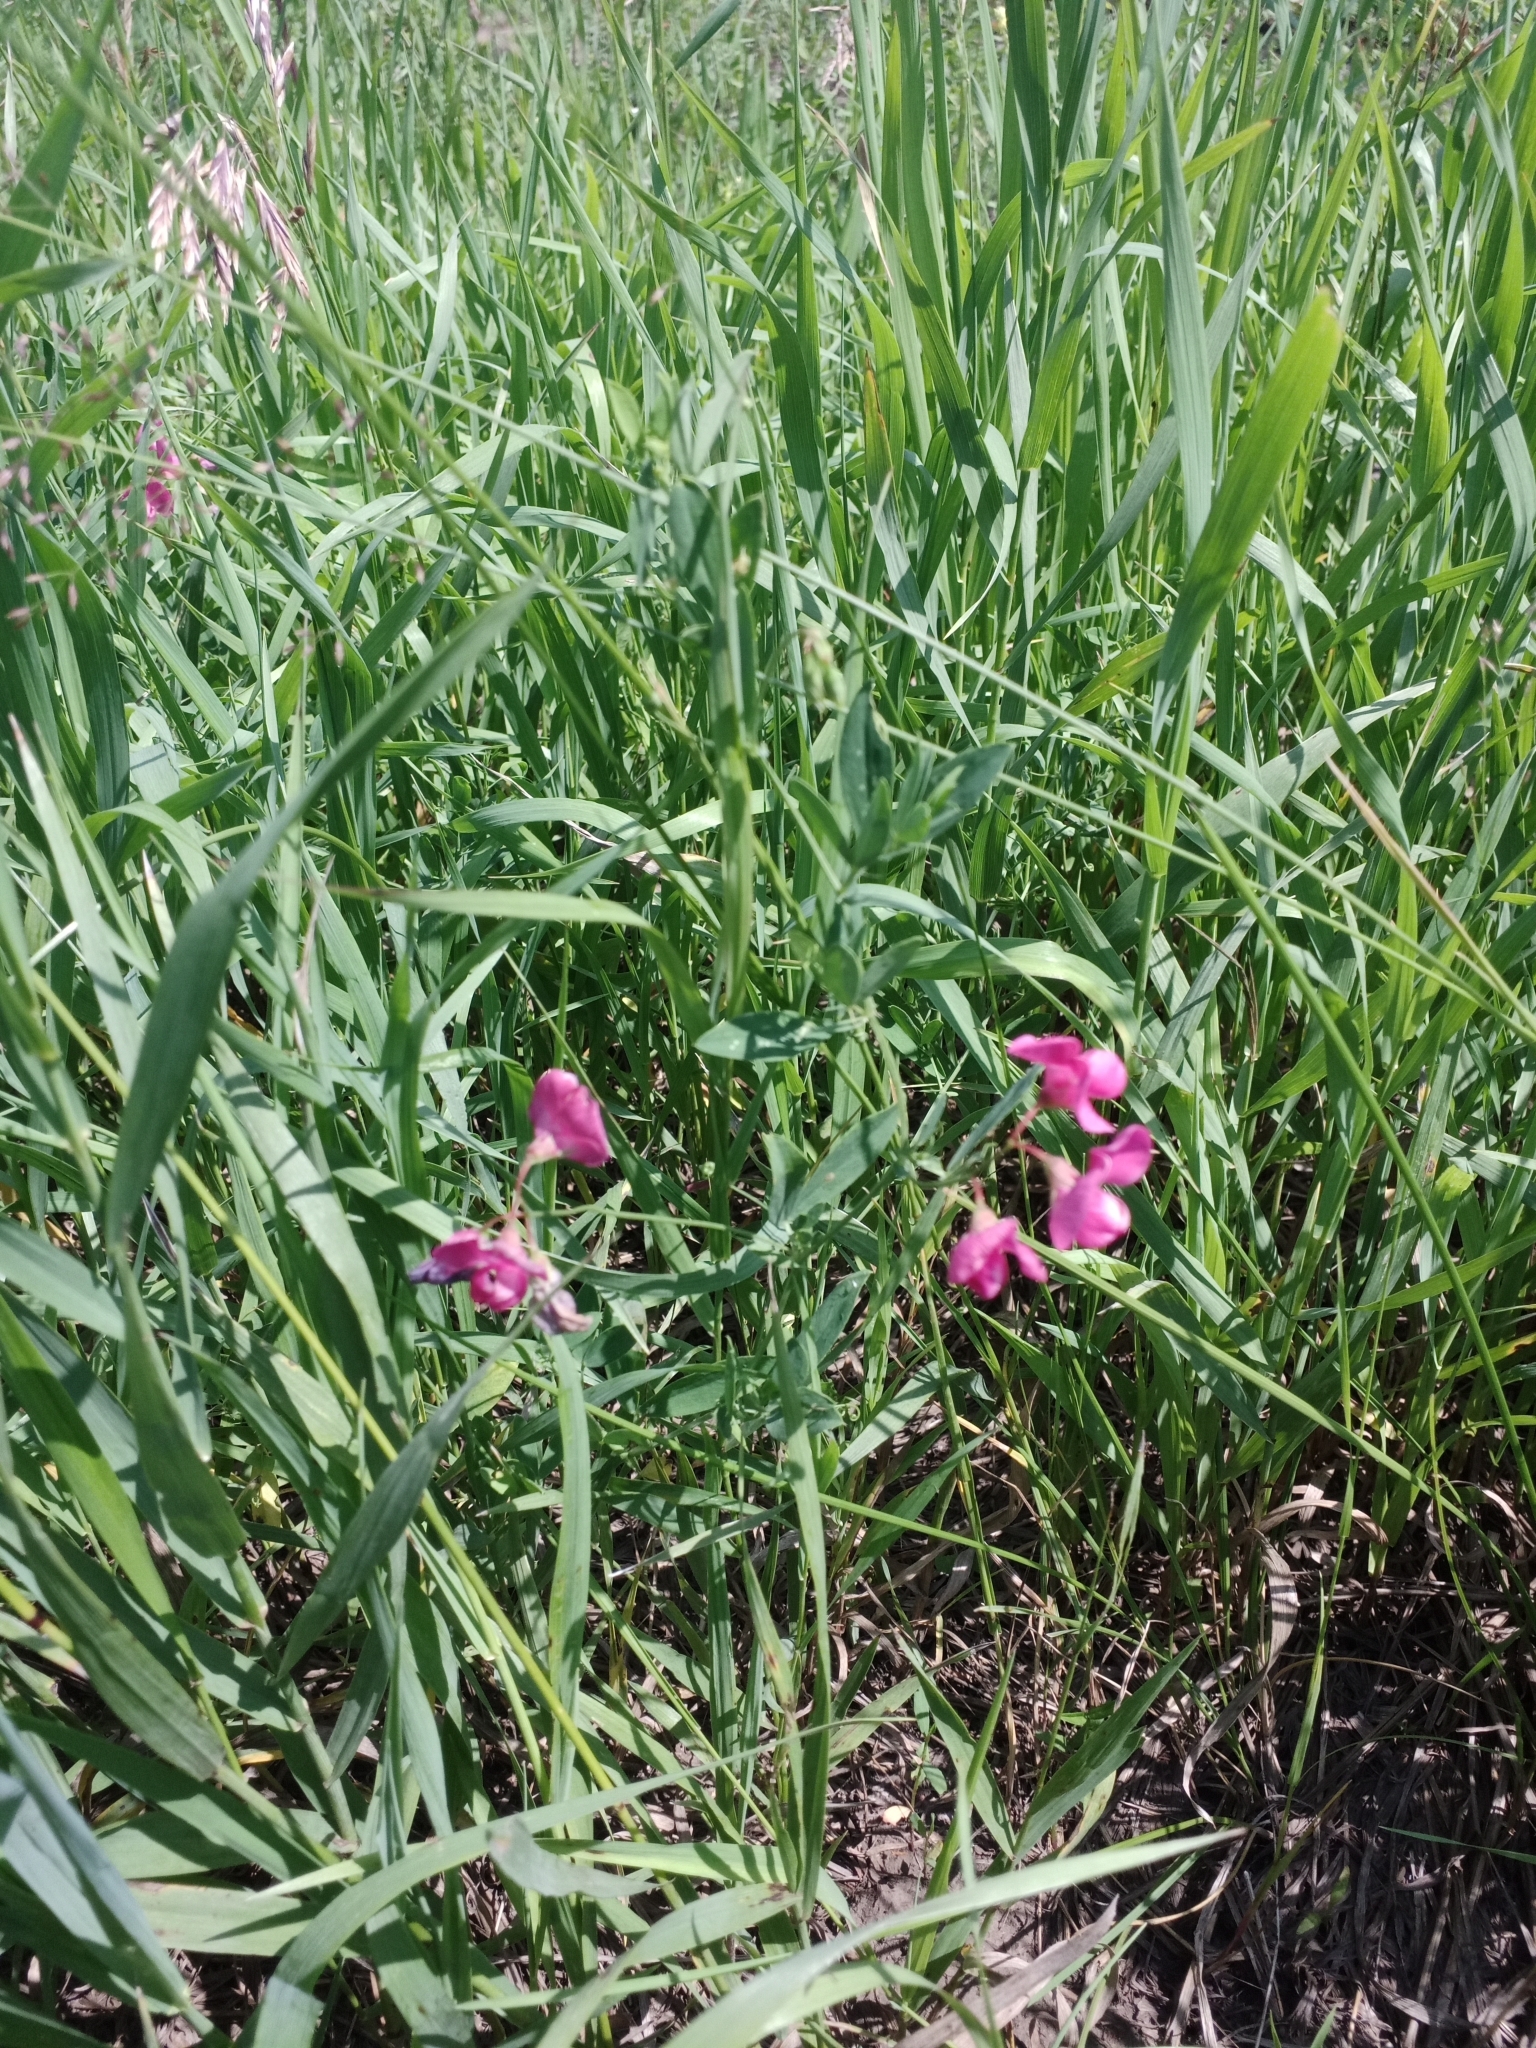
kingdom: Plantae
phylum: Tracheophyta
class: Magnoliopsida
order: Fabales
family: Fabaceae
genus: Lathyrus
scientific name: Lathyrus tuberosus
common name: Tuberous pea
